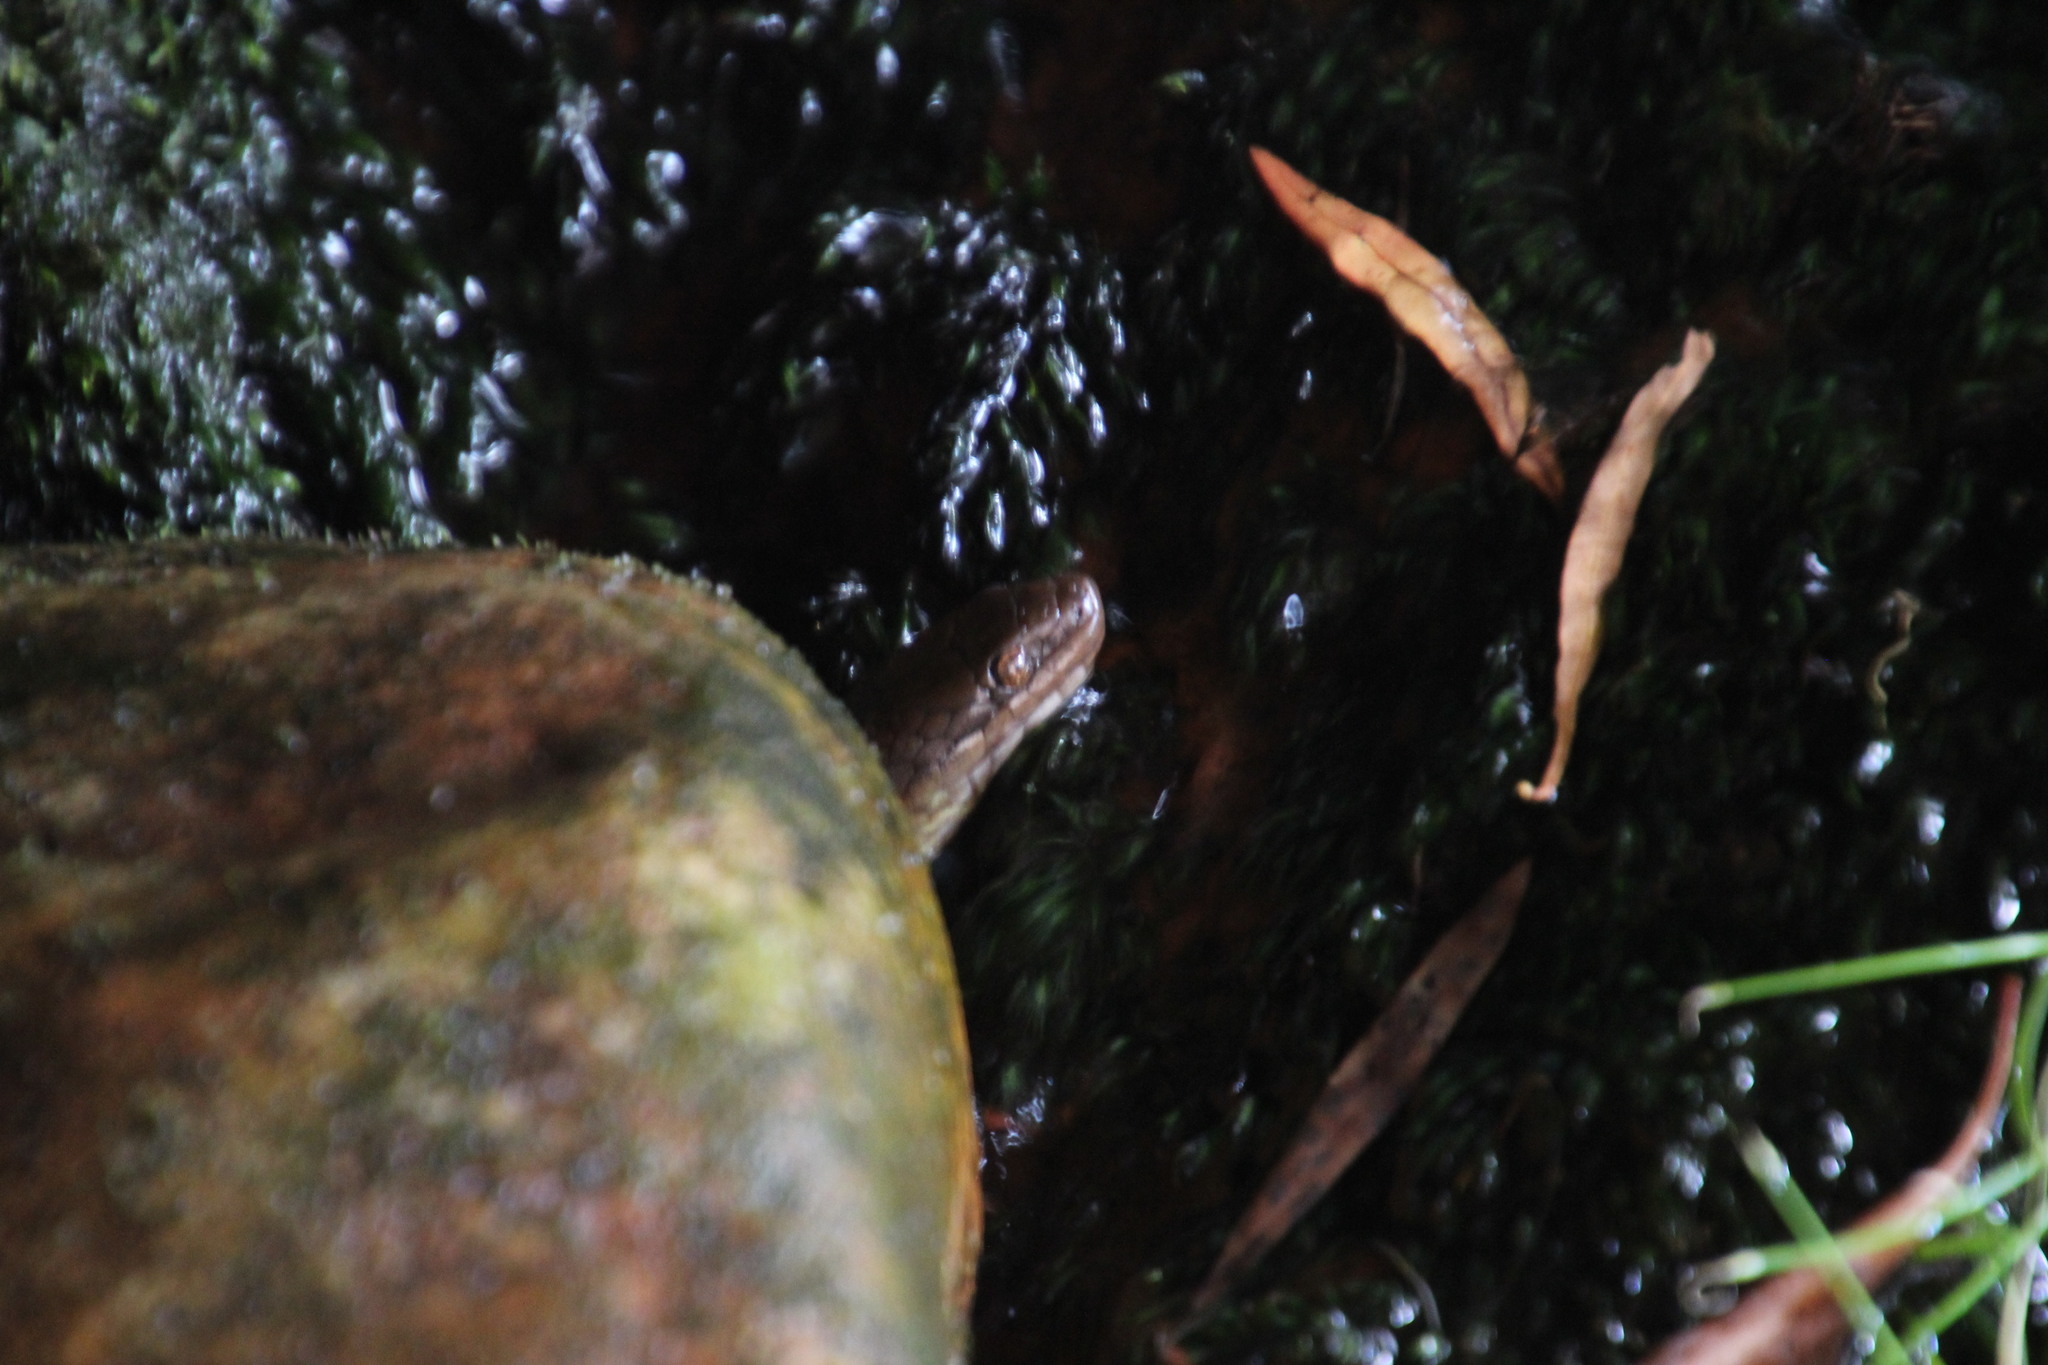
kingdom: Animalia
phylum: Chordata
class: Squamata
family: Lamprophiidae
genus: Lycodonomorphus
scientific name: Lycodonomorphus rufulus
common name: Brown water snake
